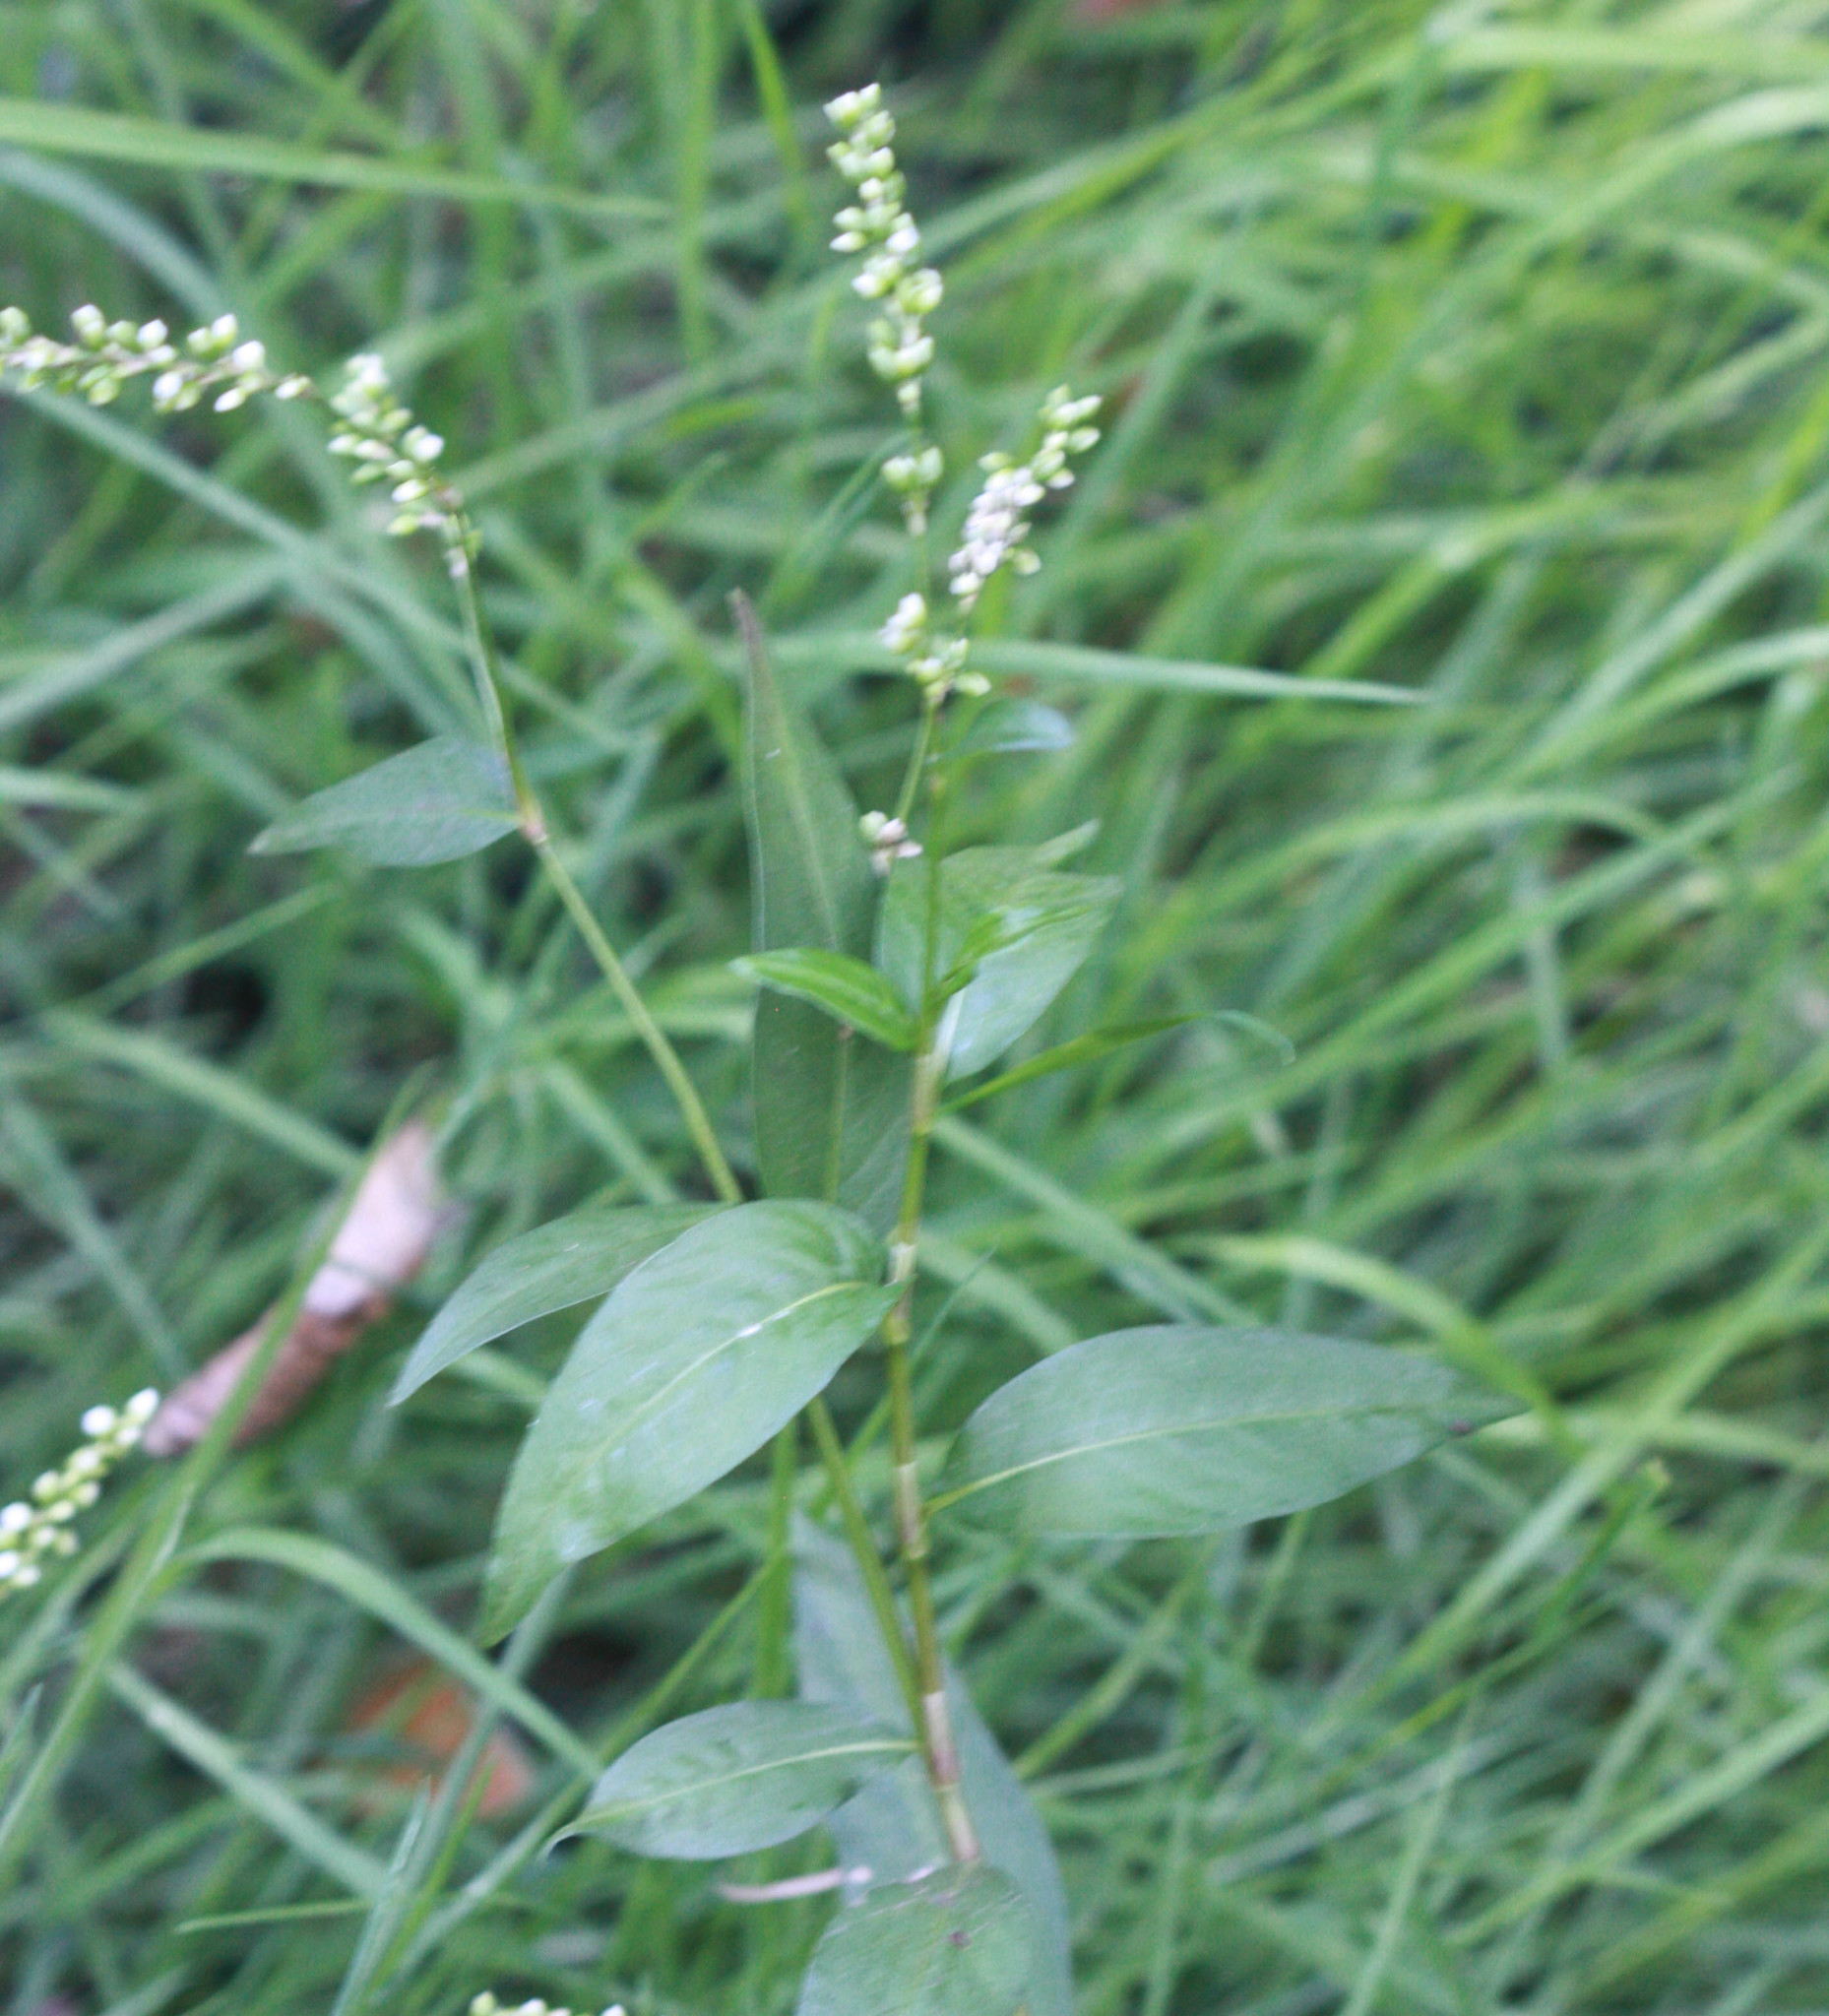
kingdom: Plantae
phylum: Tracheophyta
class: Magnoliopsida
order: Caryophyllales
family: Polygonaceae
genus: Persicaria
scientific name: Persicaria punctata
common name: Dotted smartweed
